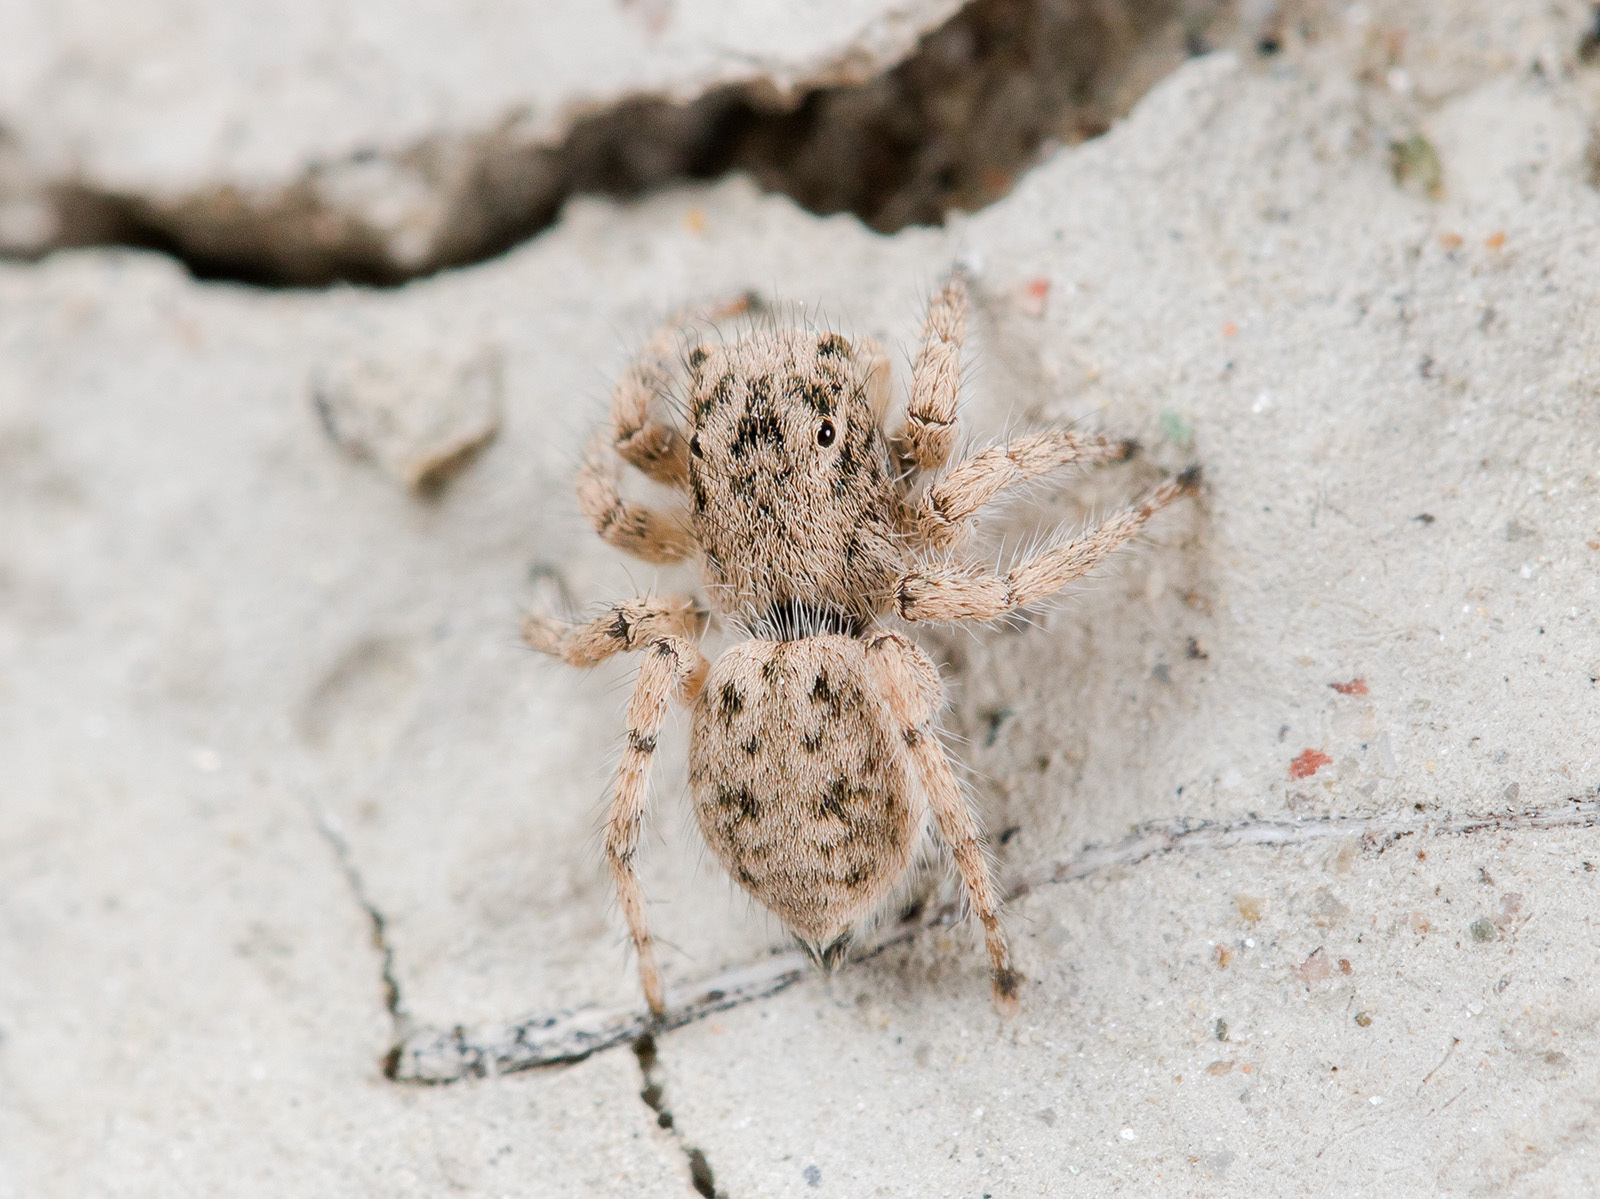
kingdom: Animalia
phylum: Arthropoda
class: Arachnida
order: Araneae
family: Salticidae
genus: Aelurillus
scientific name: Aelurillus concolor
